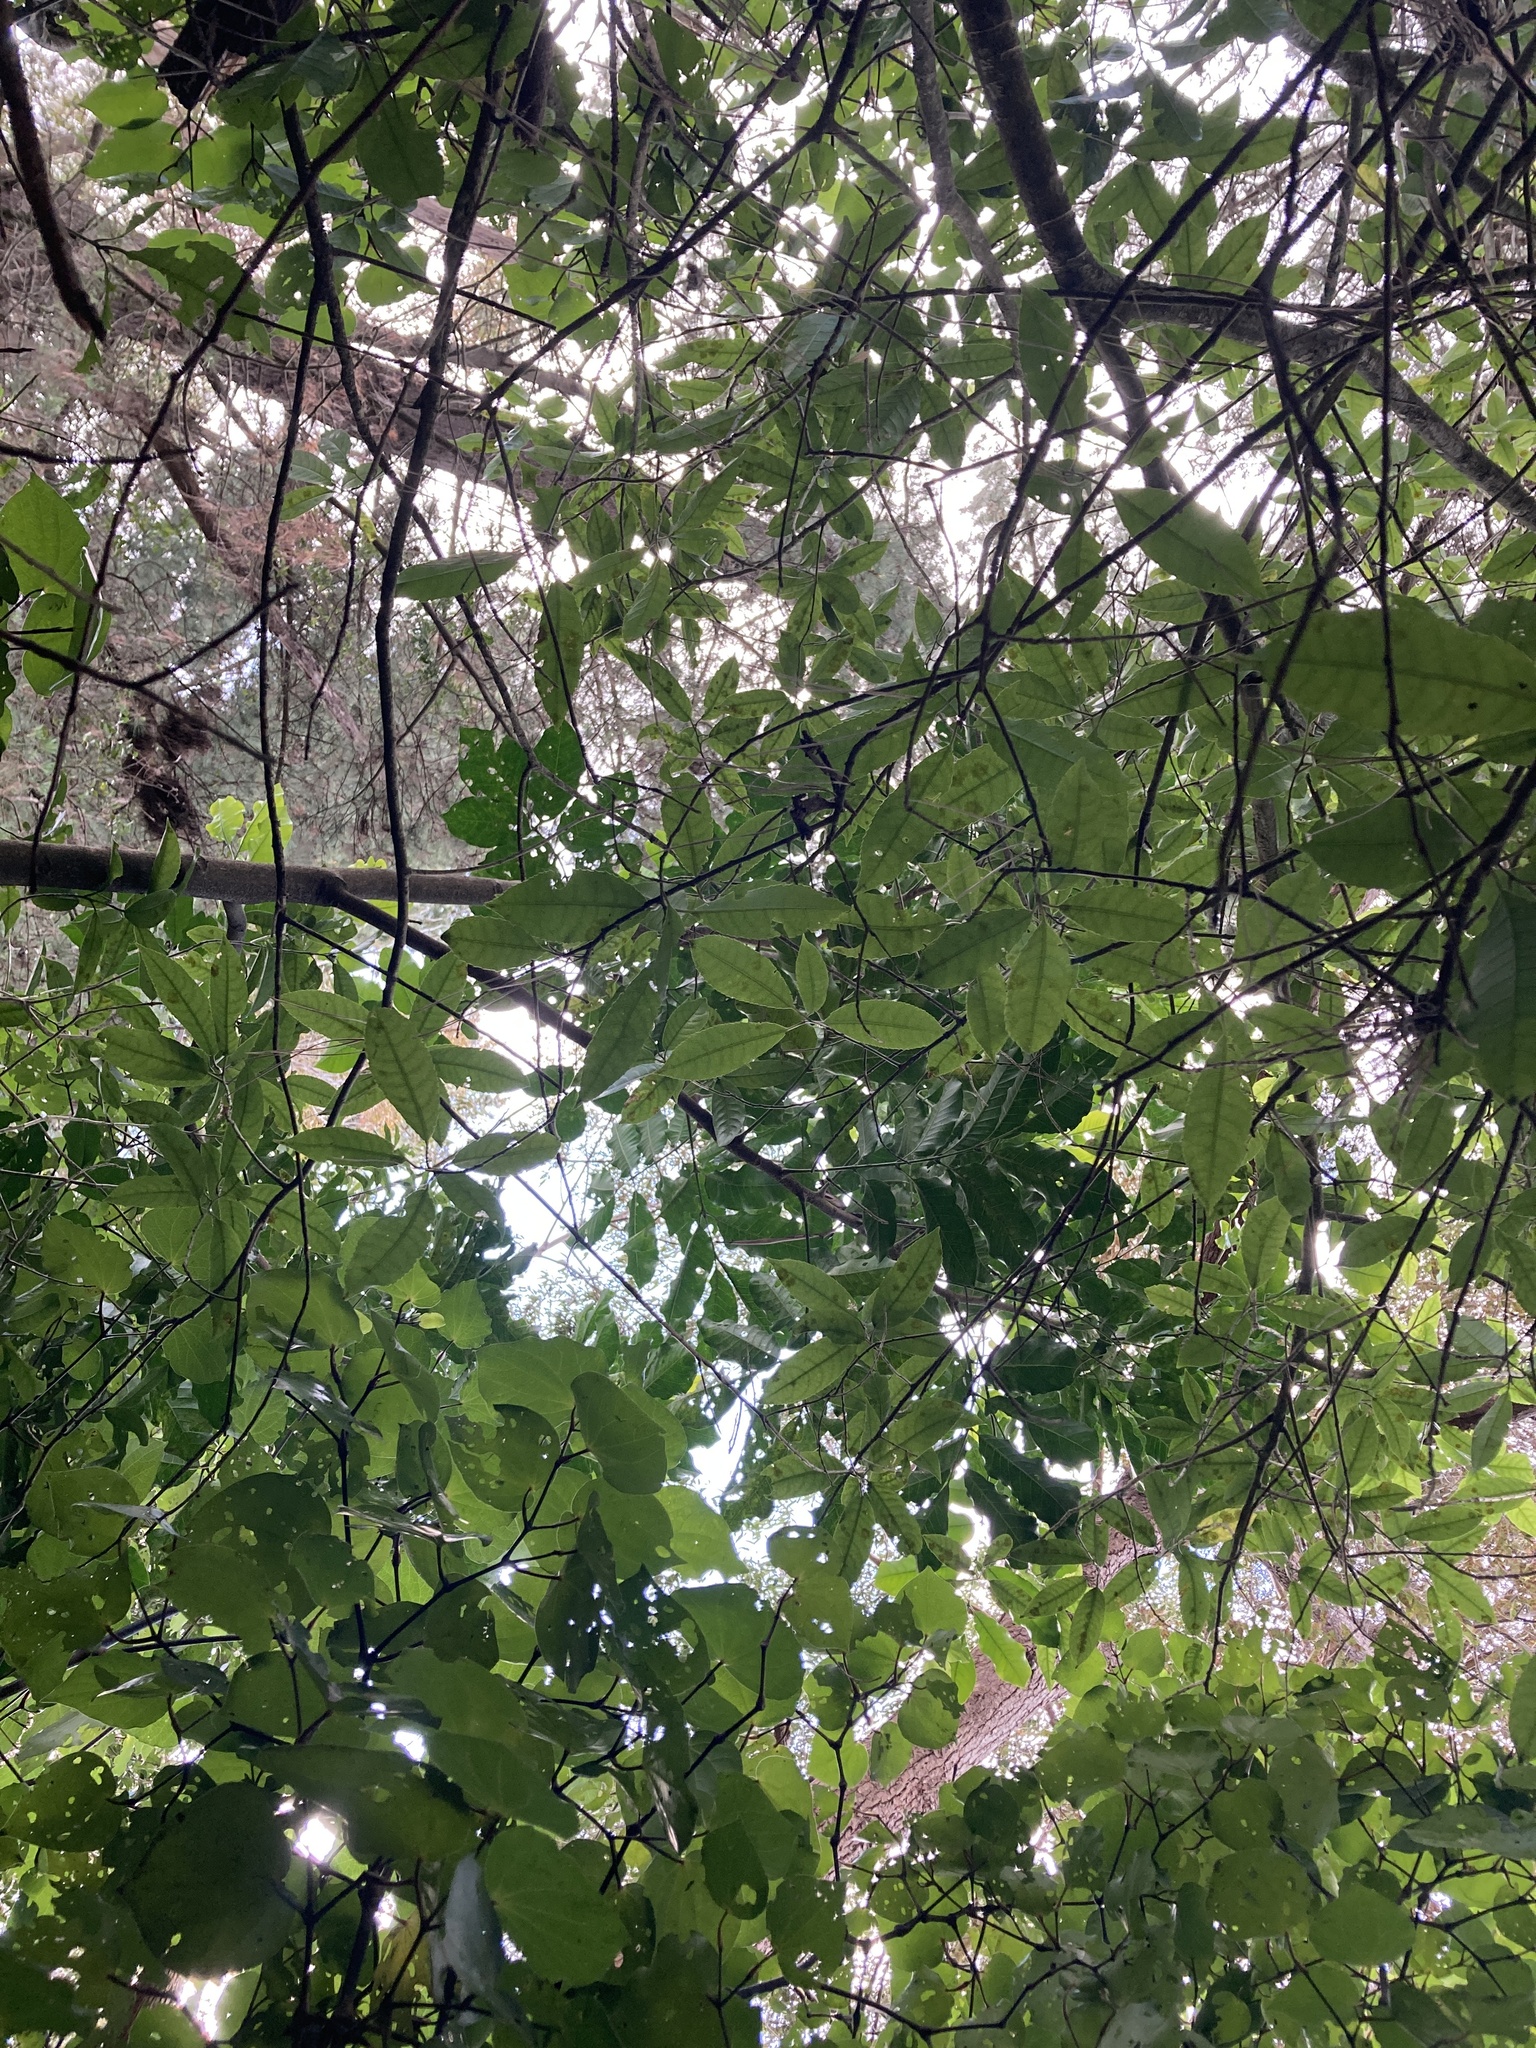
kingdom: Plantae
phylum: Tracheophyta
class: Magnoliopsida
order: Sapindales
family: Meliaceae
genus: Didymocheton
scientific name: Didymocheton spectabilis
